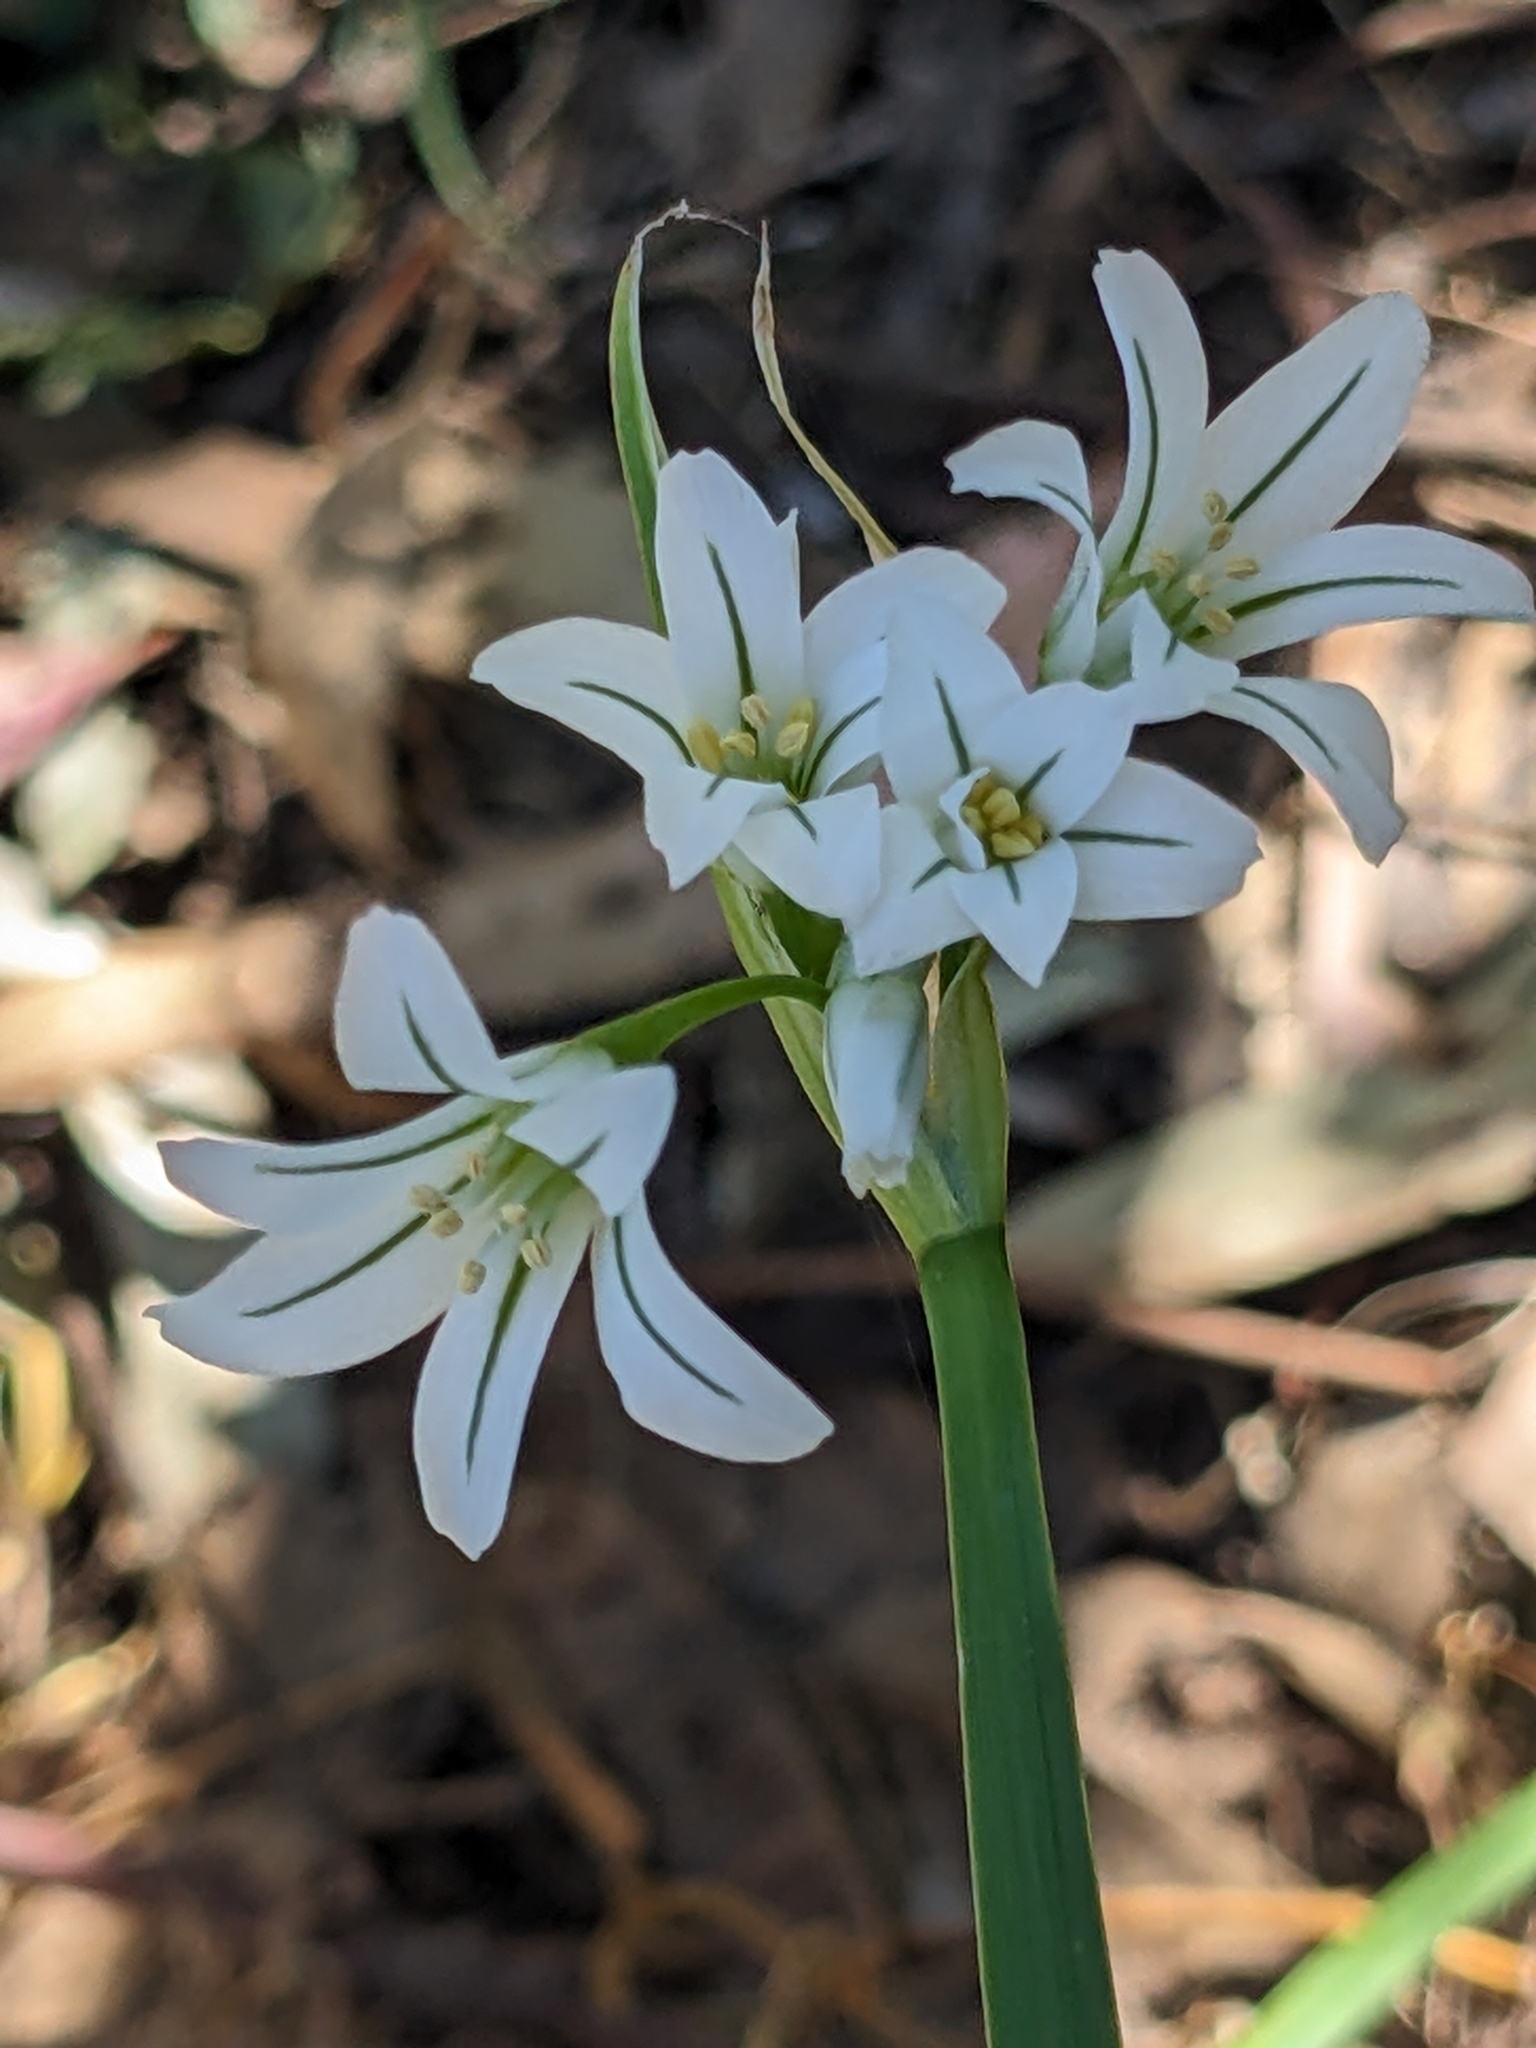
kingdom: Plantae
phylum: Tracheophyta
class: Liliopsida
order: Asparagales
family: Amaryllidaceae
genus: Allium
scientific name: Allium triquetrum
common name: Three-cornered garlic
